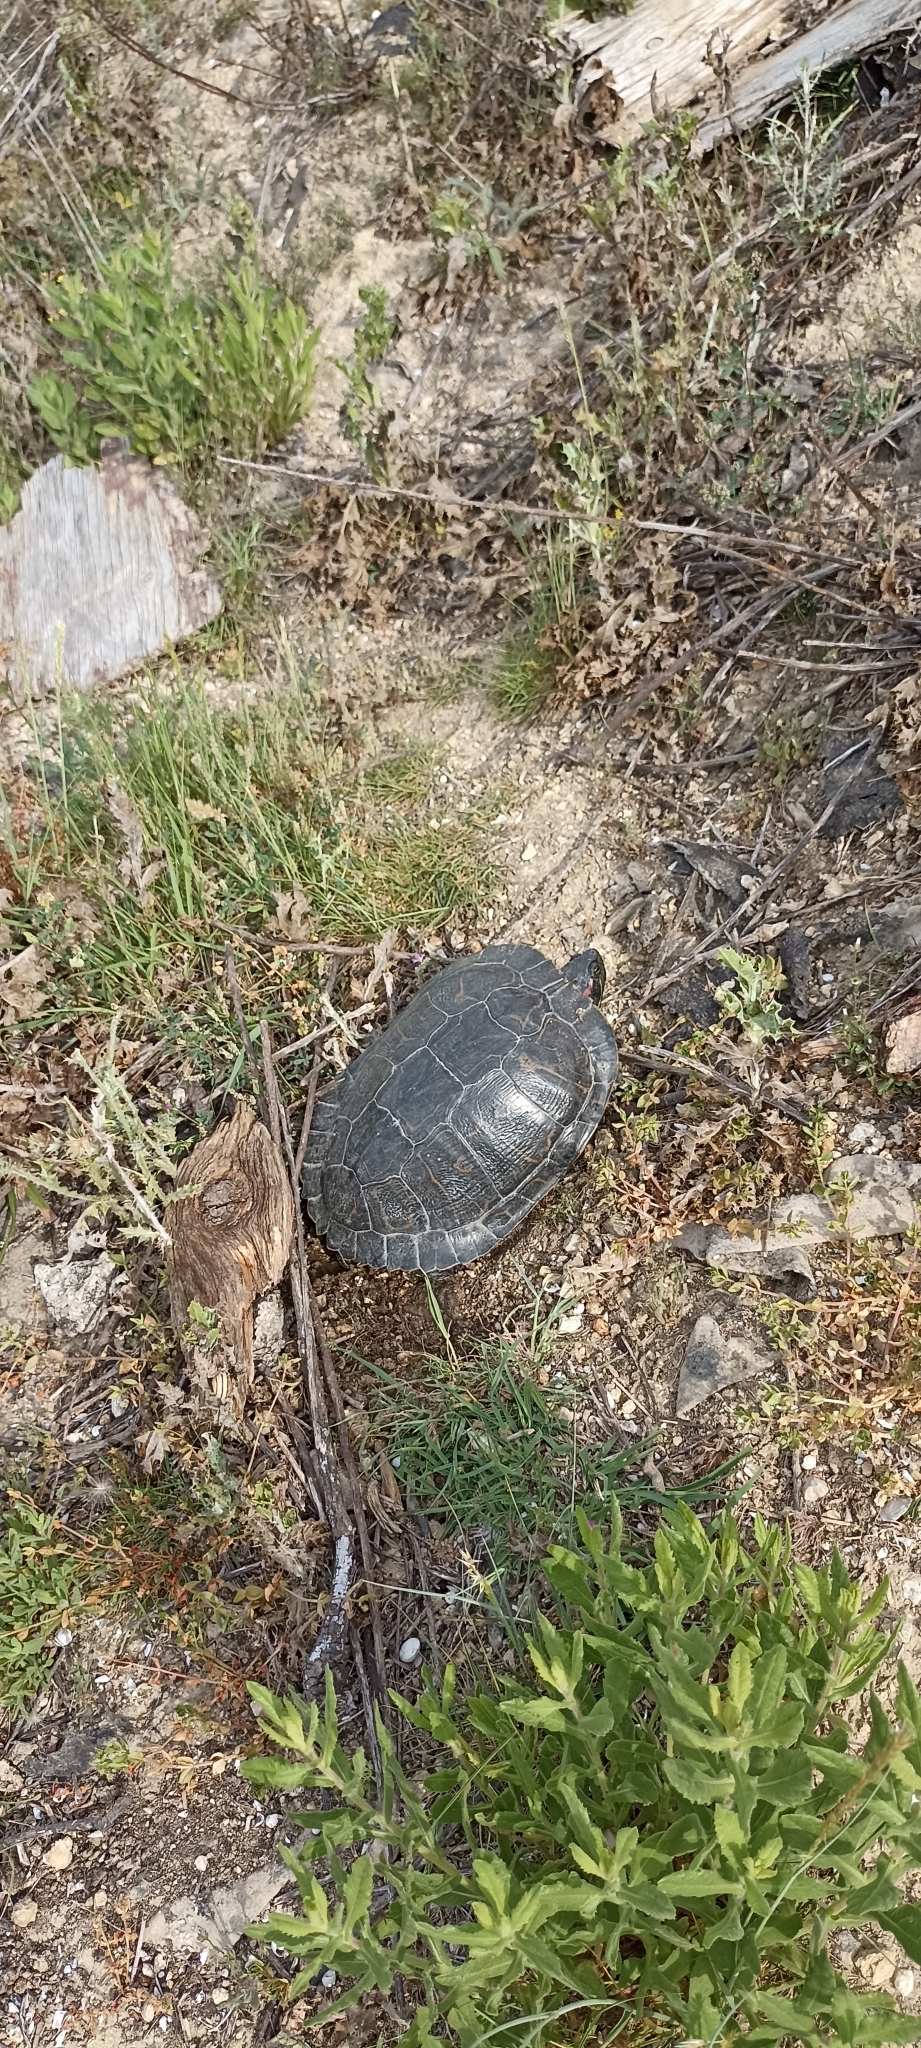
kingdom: Animalia
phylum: Chordata
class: Testudines
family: Emydidae
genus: Trachemys
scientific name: Trachemys scripta
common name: Slider
